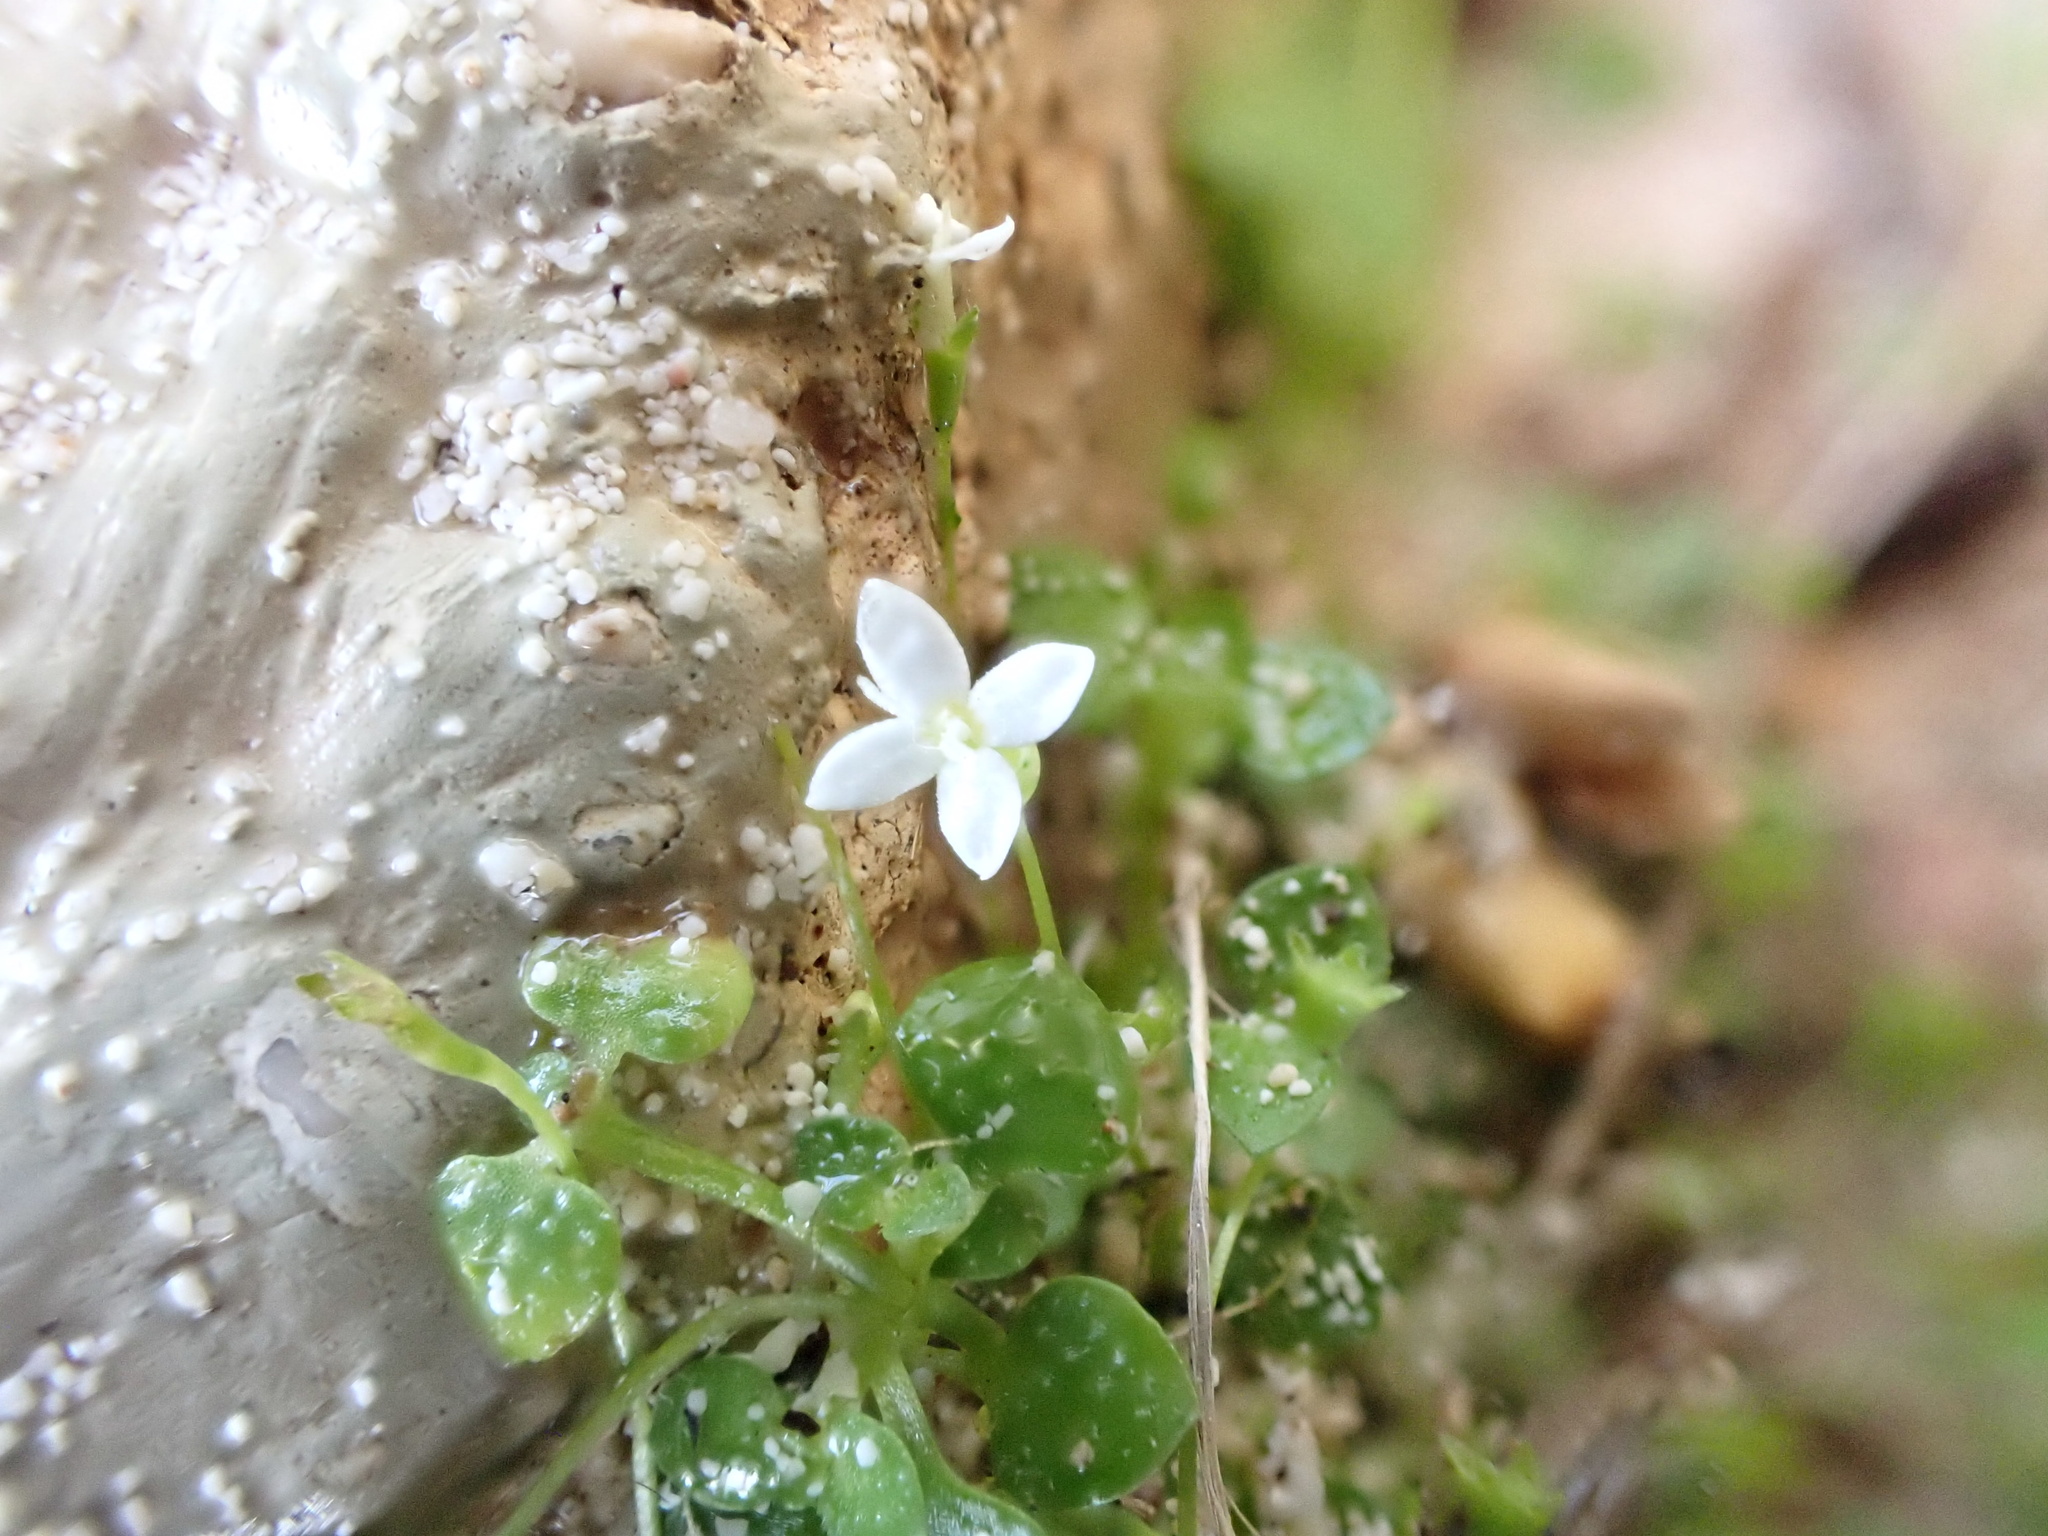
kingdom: Plantae
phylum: Tracheophyta
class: Magnoliopsida
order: Gentianales
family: Rubiaceae
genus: Oldenlandiopsis
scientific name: Oldenlandiopsis callitrichoides
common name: Creeping-bluet
